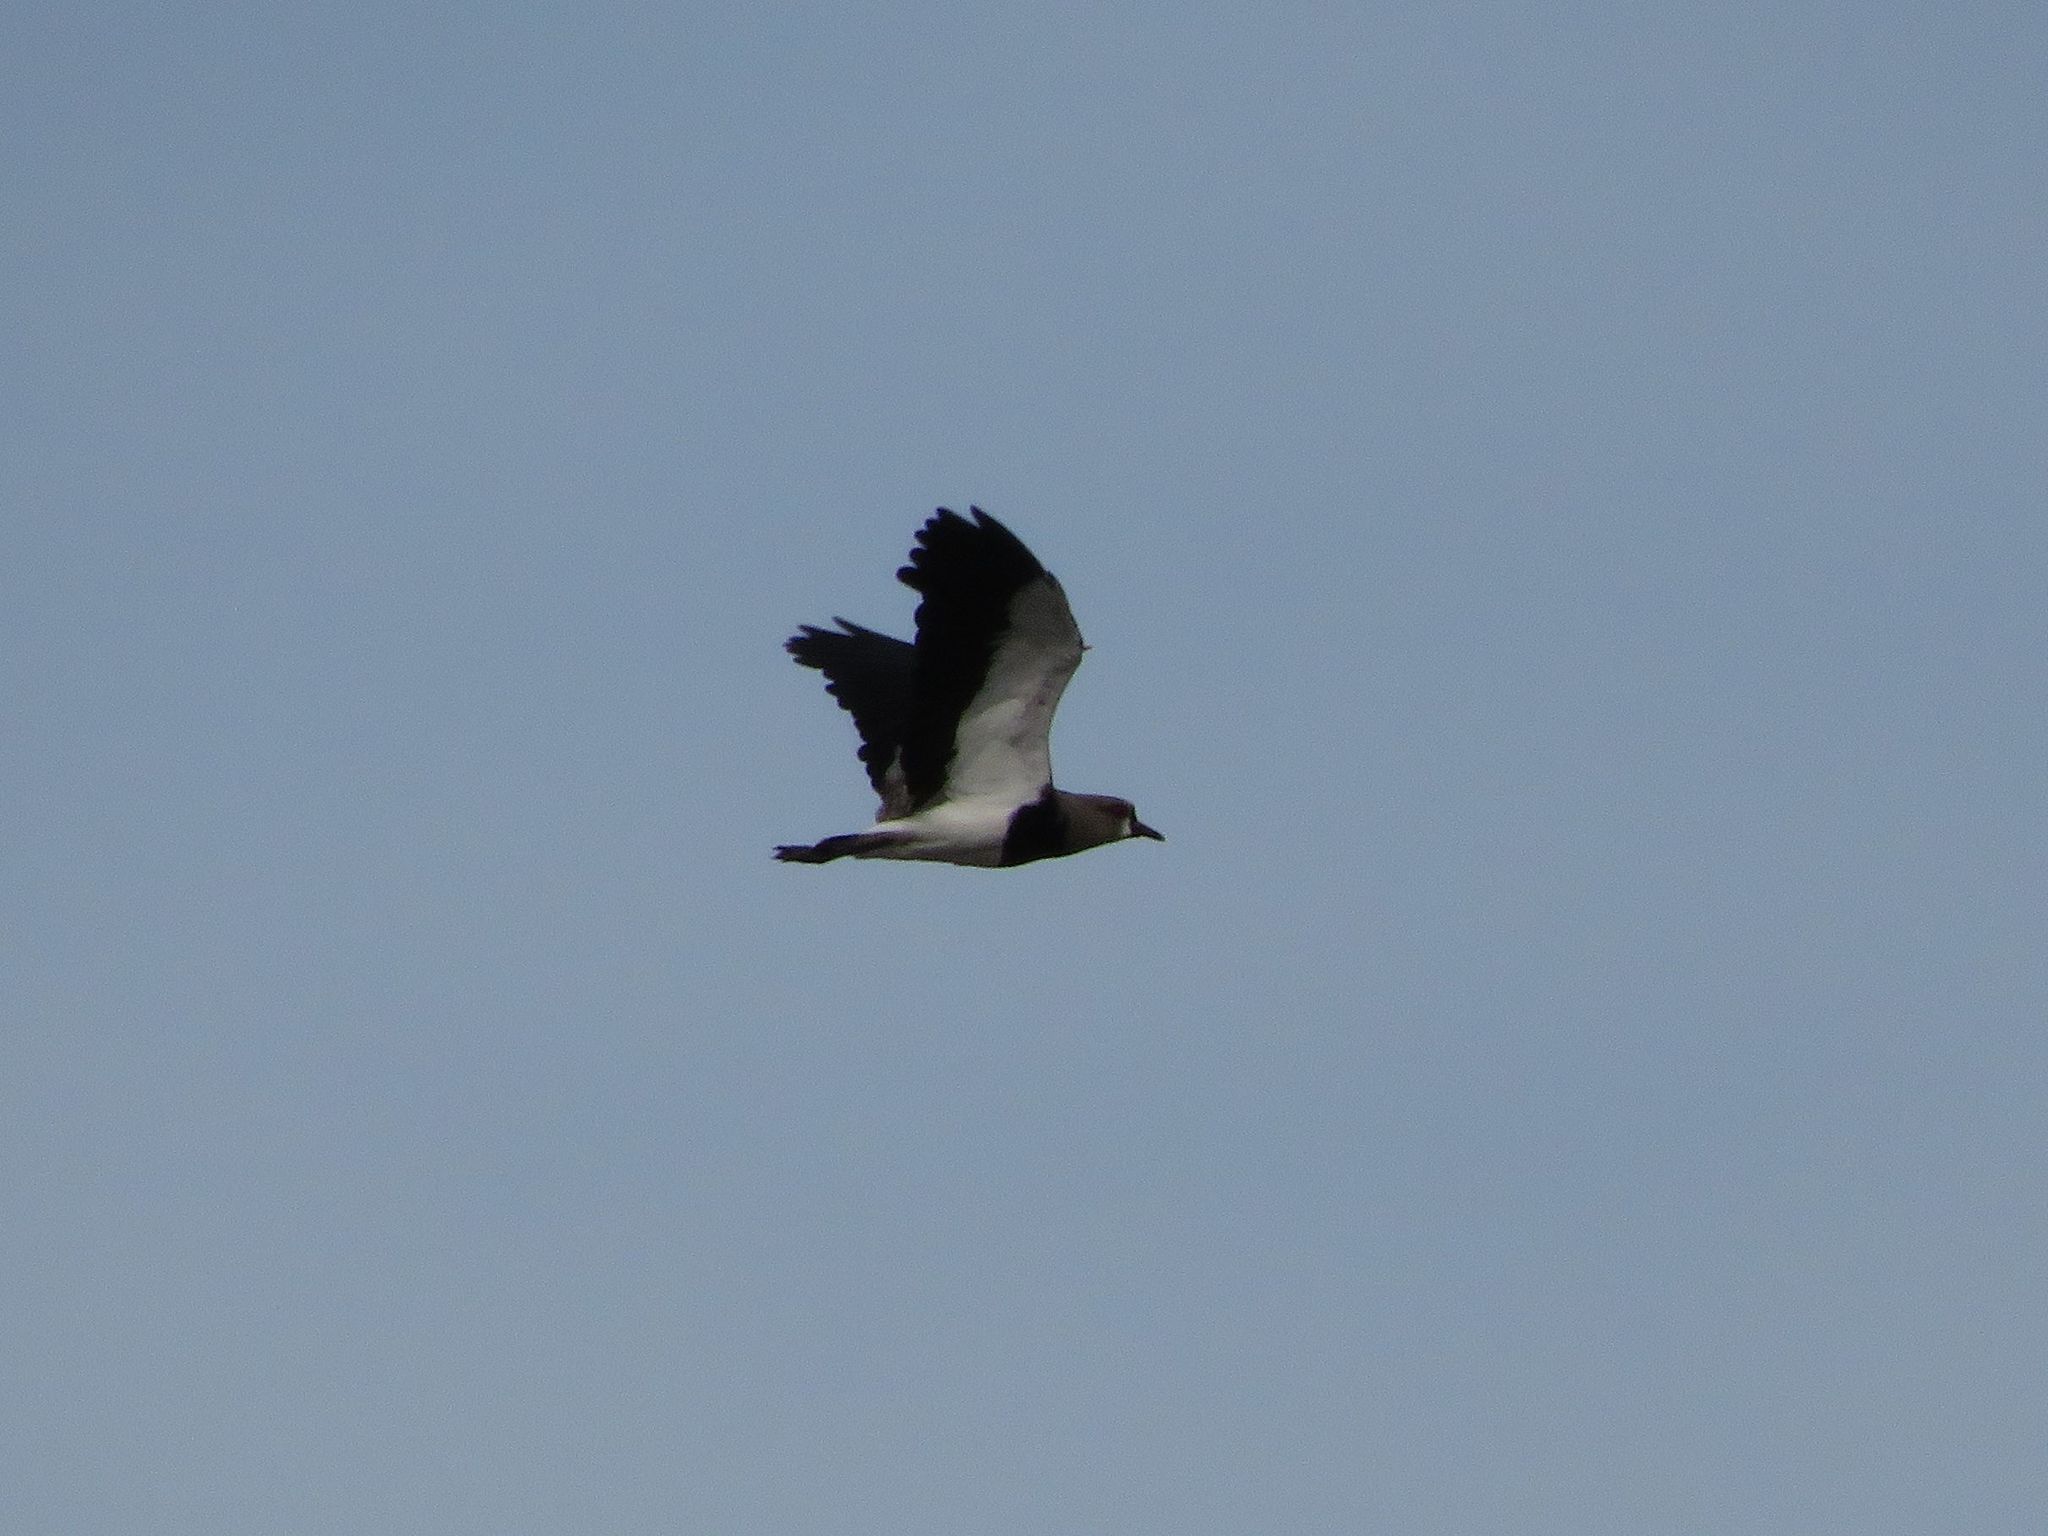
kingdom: Animalia
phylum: Chordata
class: Aves
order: Charadriiformes
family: Charadriidae
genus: Vanellus
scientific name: Vanellus chilensis
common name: Southern lapwing
